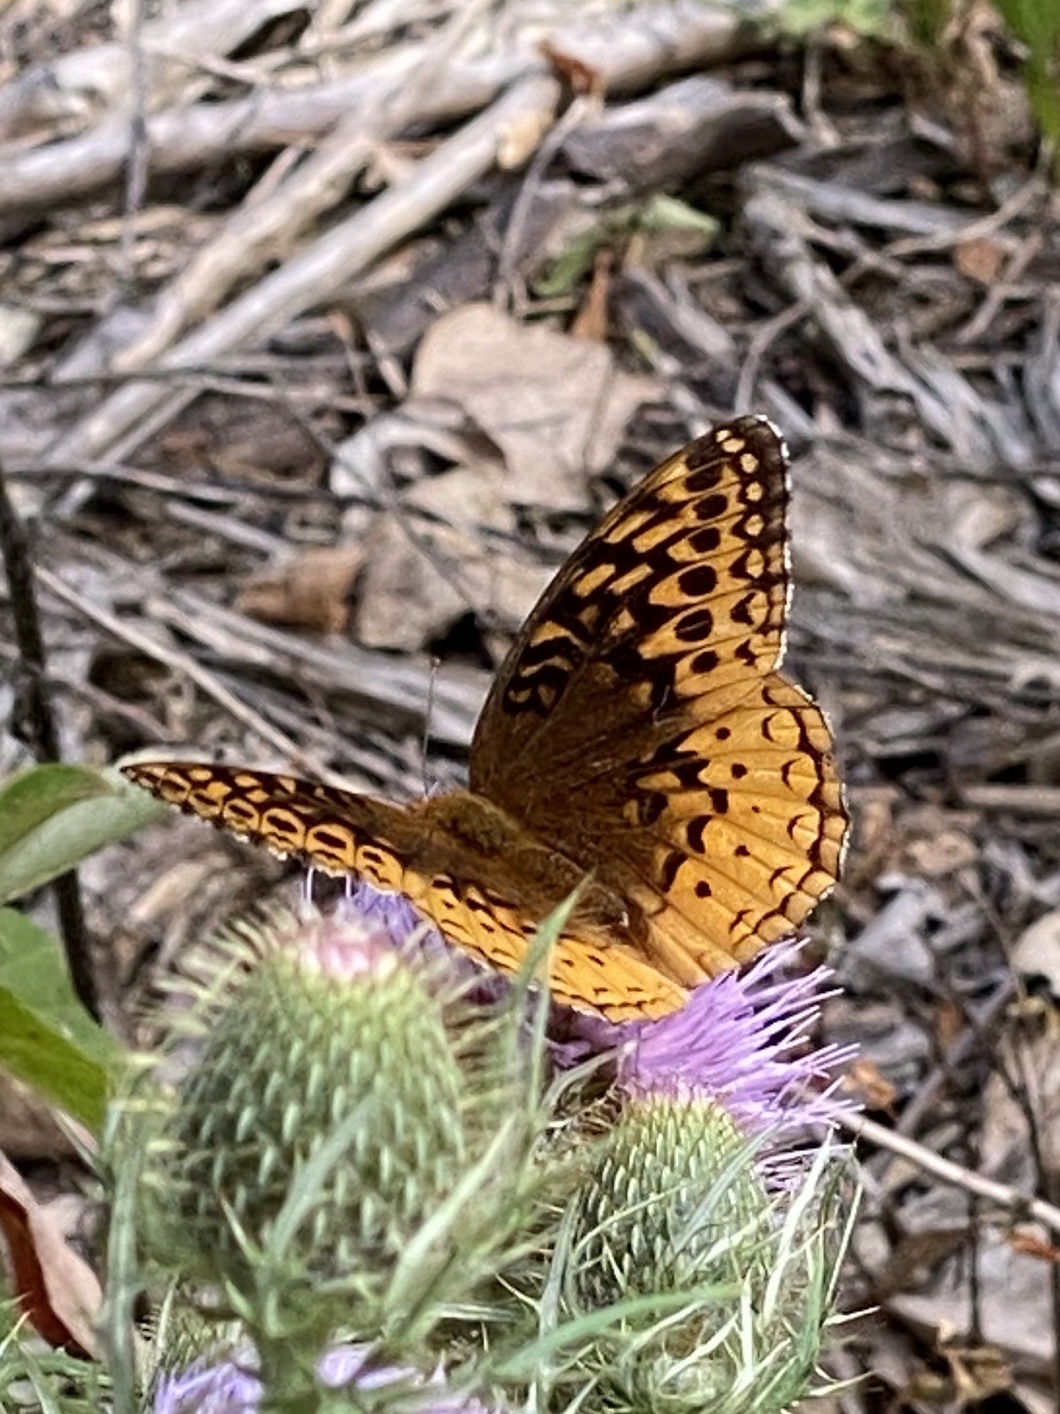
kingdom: Animalia
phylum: Arthropoda
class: Insecta
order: Lepidoptera
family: Nymphalidae
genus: Speyeria
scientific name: Speyeria cybele
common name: Great spangled fritillary
